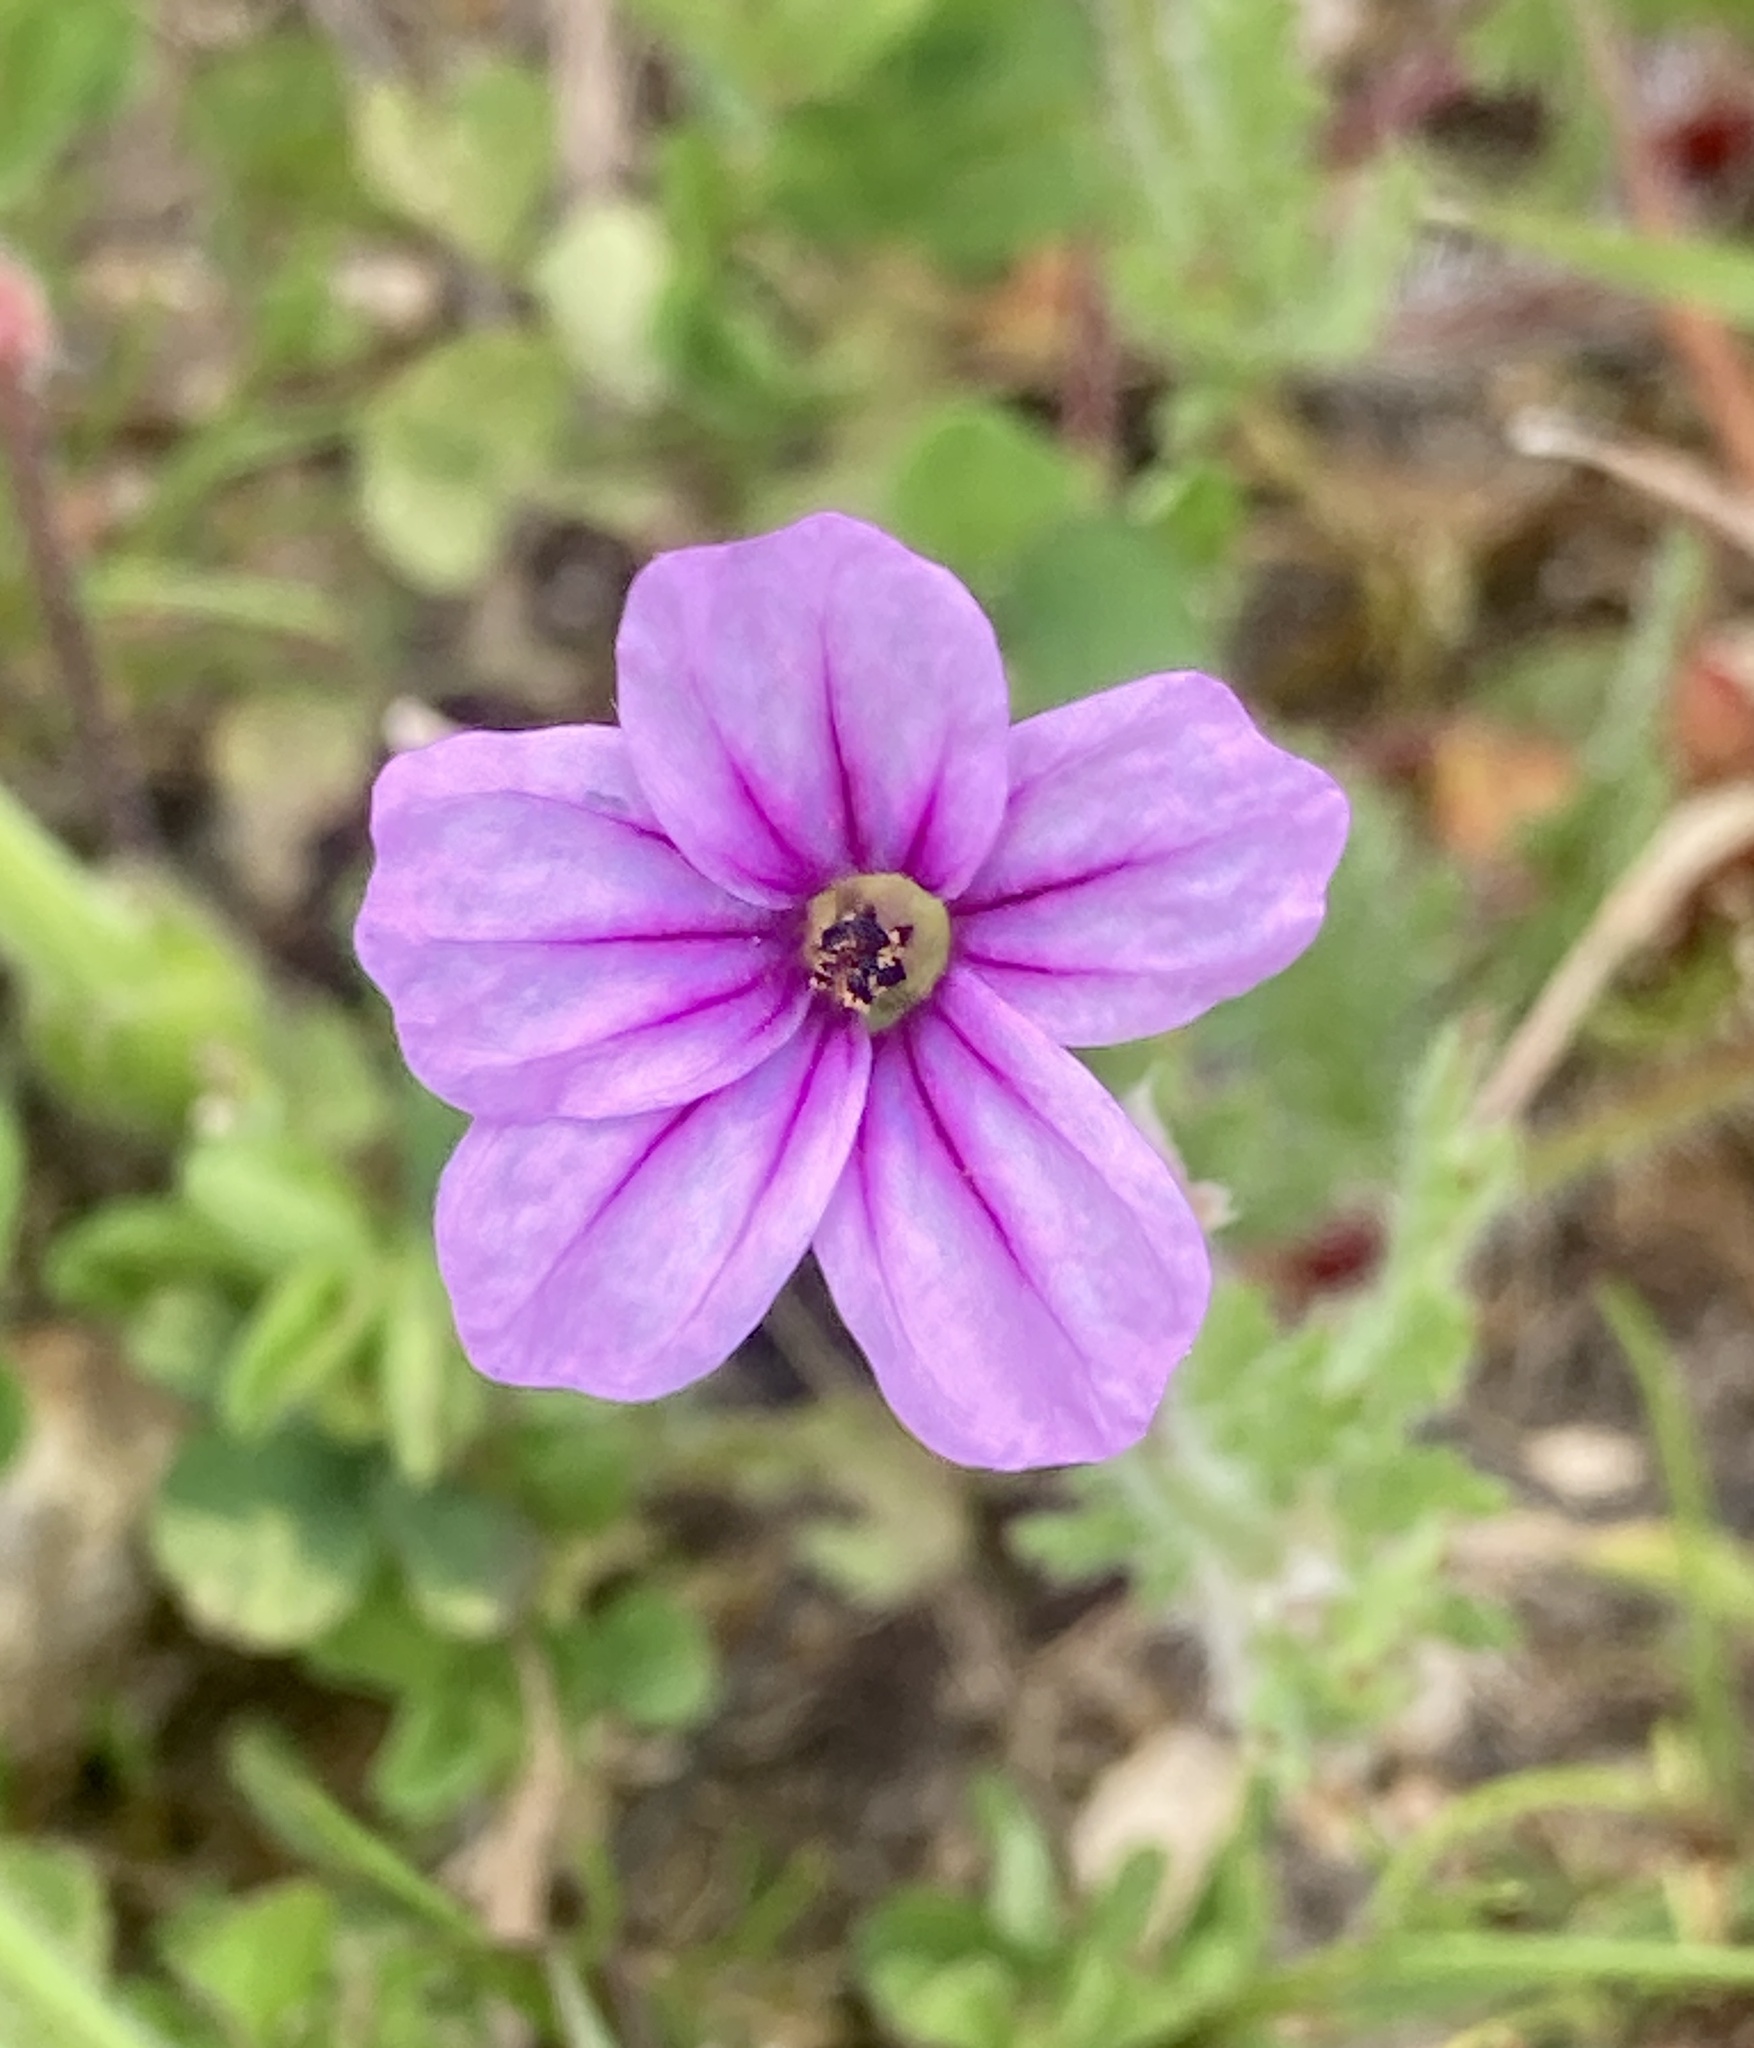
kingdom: Plantae
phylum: Tracheophyta
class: Magnoliopsida
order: Geraniales
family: Geraniaceae
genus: Erodium
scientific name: Erodium botrys
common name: Mediterranean stork's-bill
